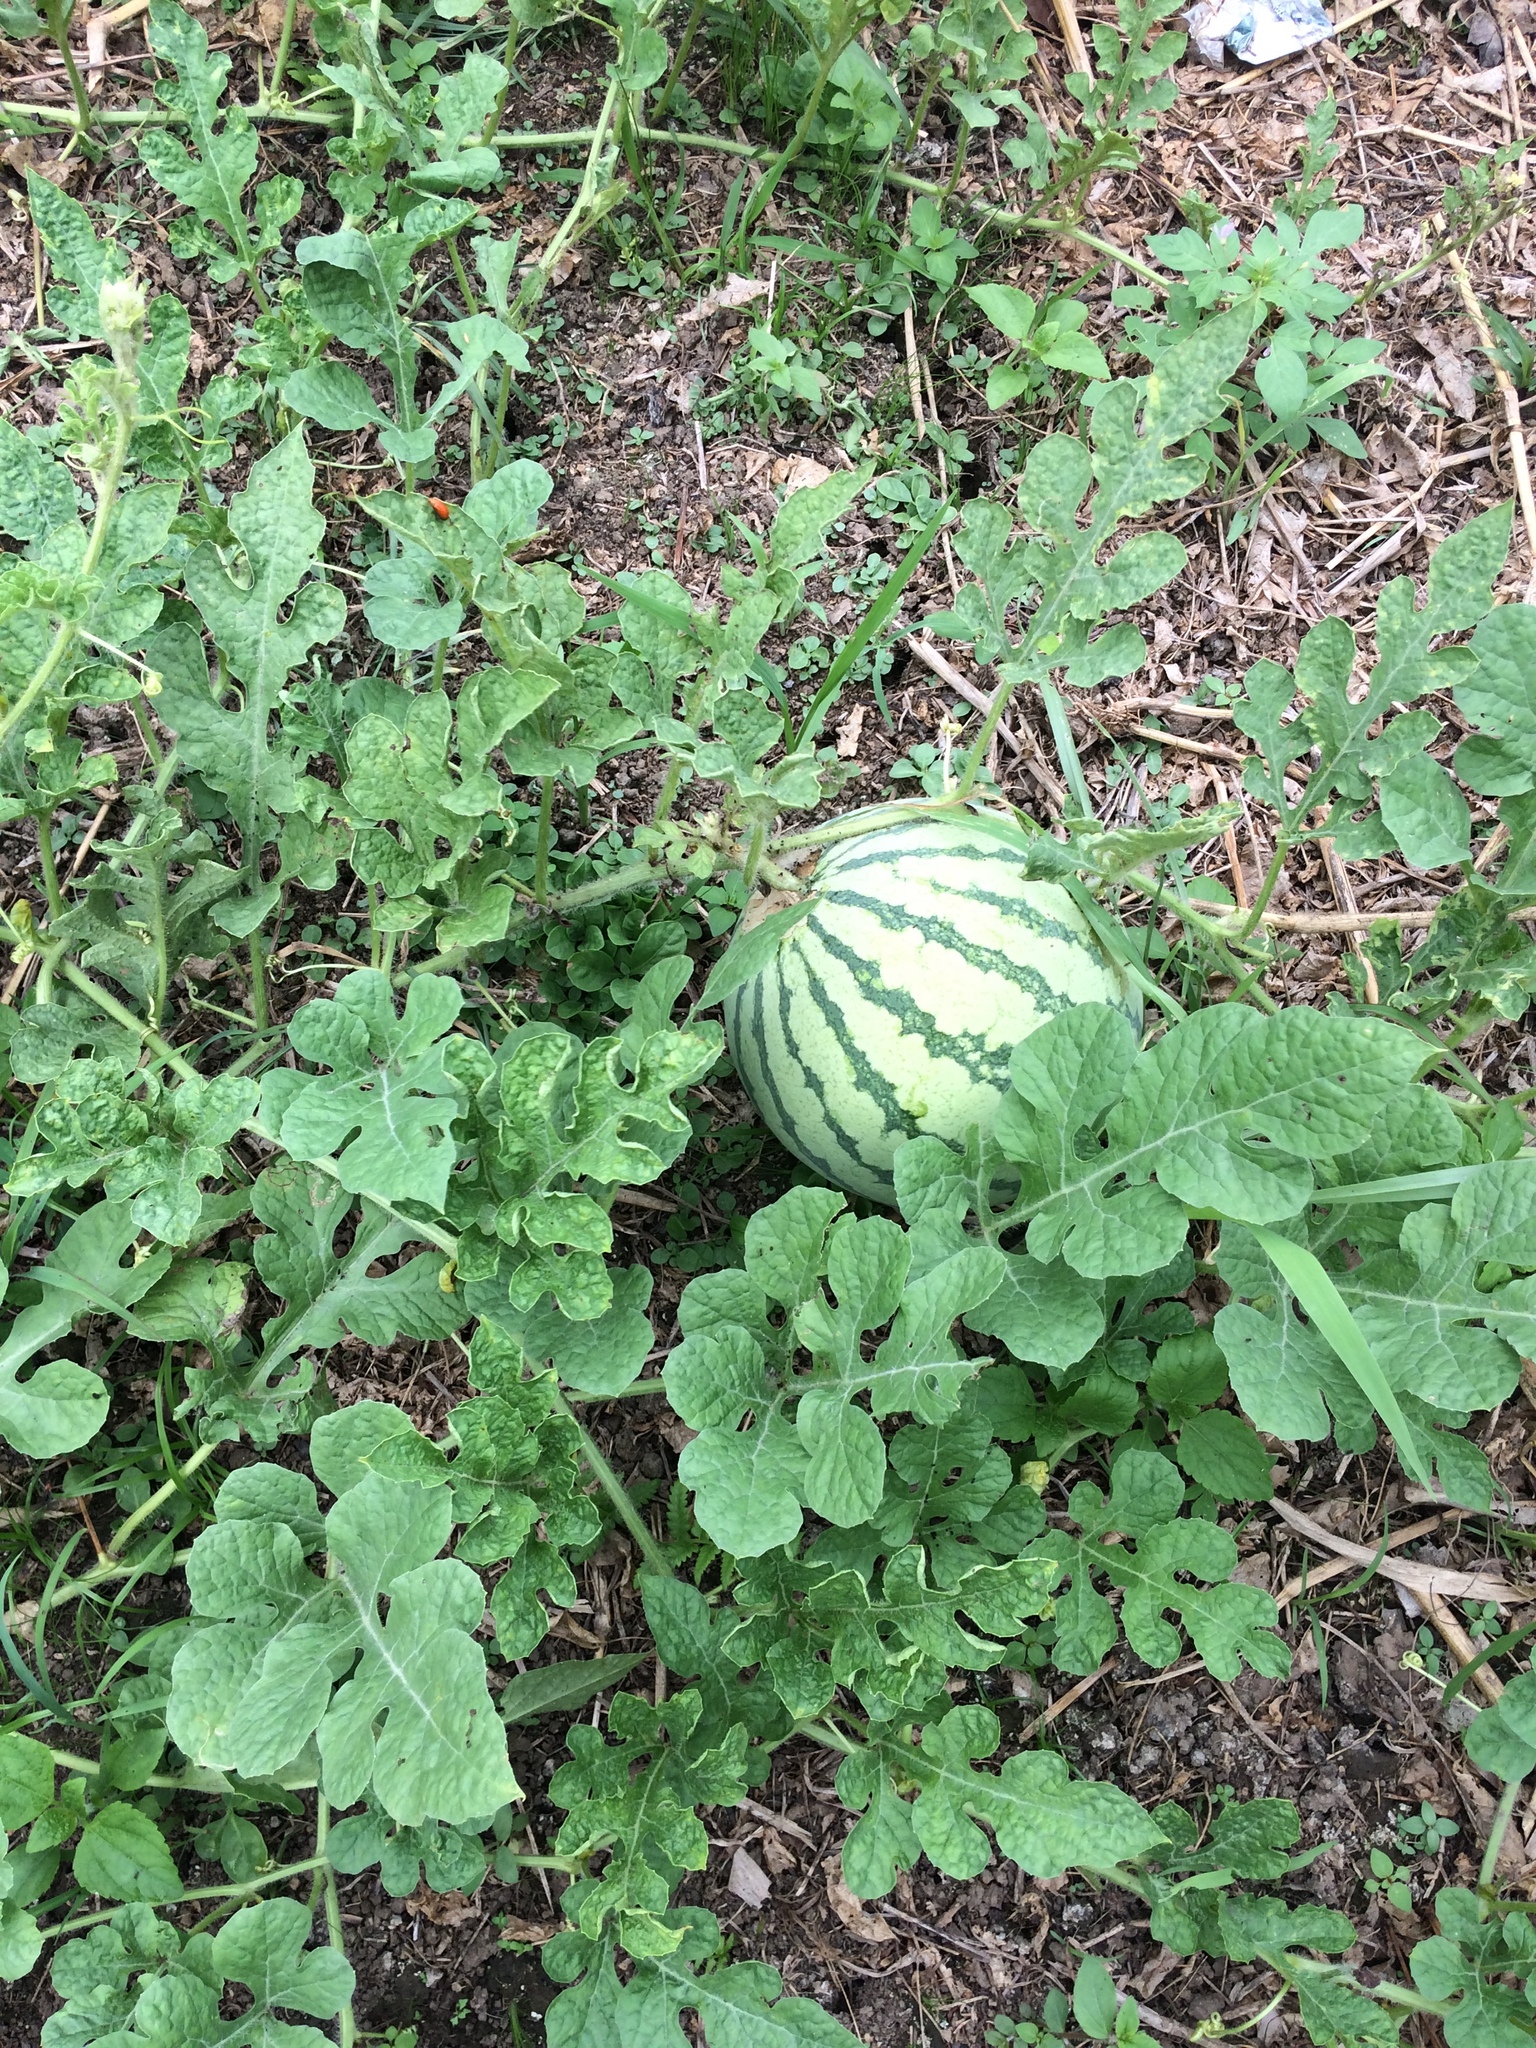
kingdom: Plantae
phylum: Tracheophyta
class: Magnoliopsida
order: Cucurbitales
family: Cucurbitaceae
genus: Citrullus
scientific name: Citrullus lanatus
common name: Watermelon
